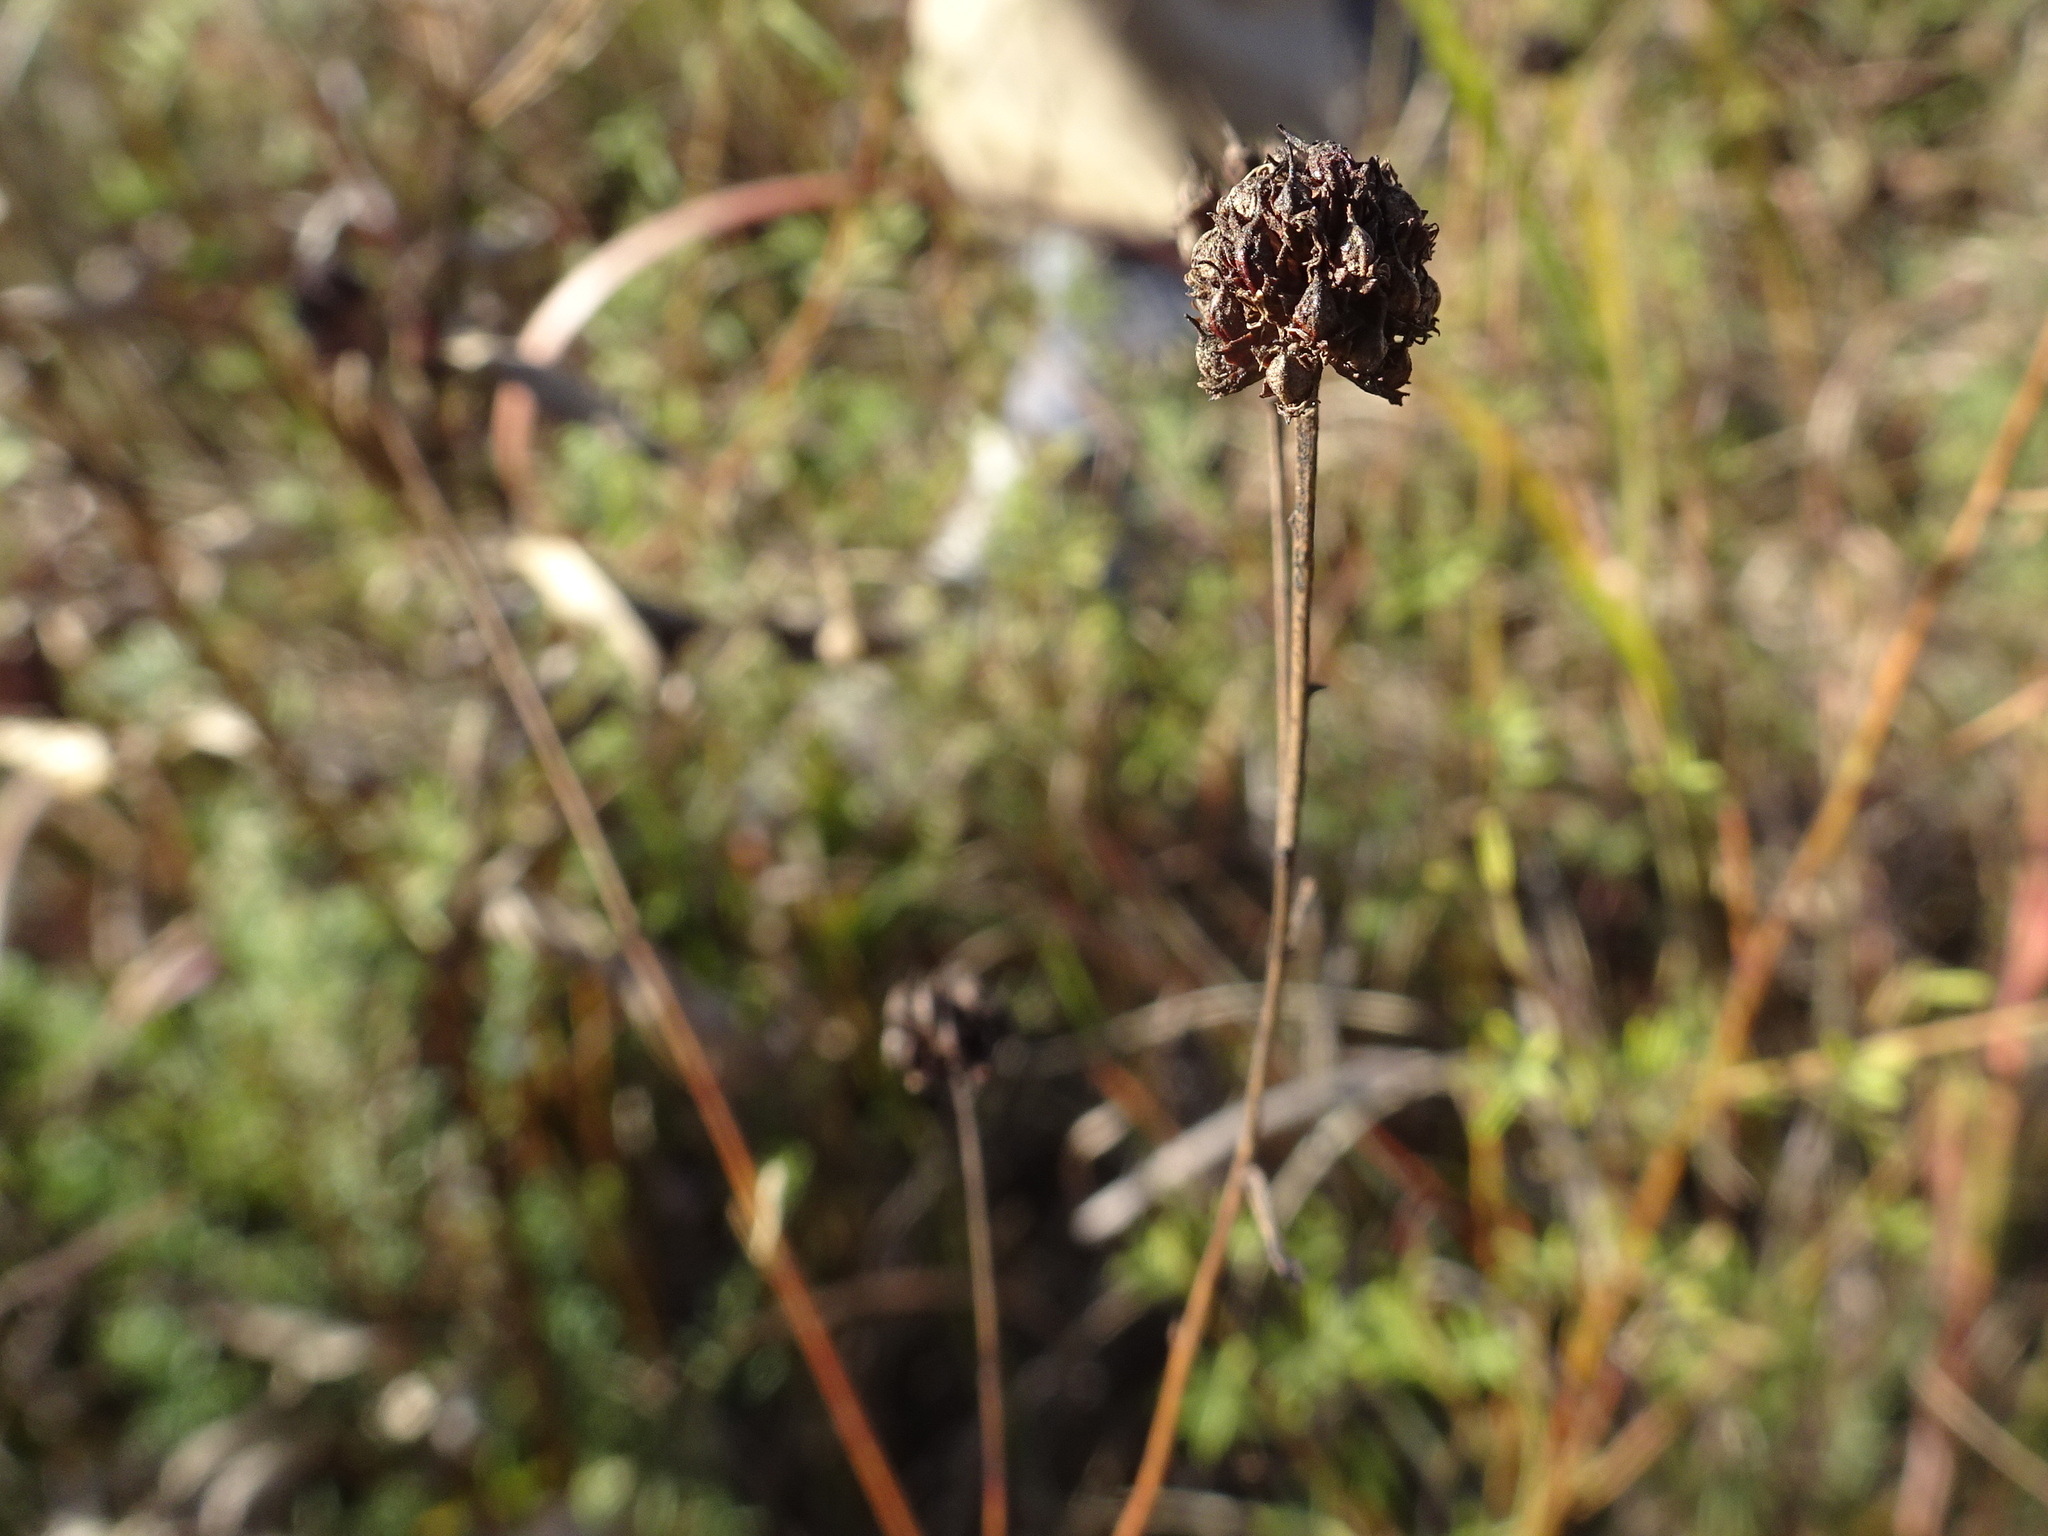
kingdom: Plantae
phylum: Tracheophyta
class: Magnoliopsida
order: Fabales
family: Fabaceae
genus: Dalea
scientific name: Dalea multiflora
